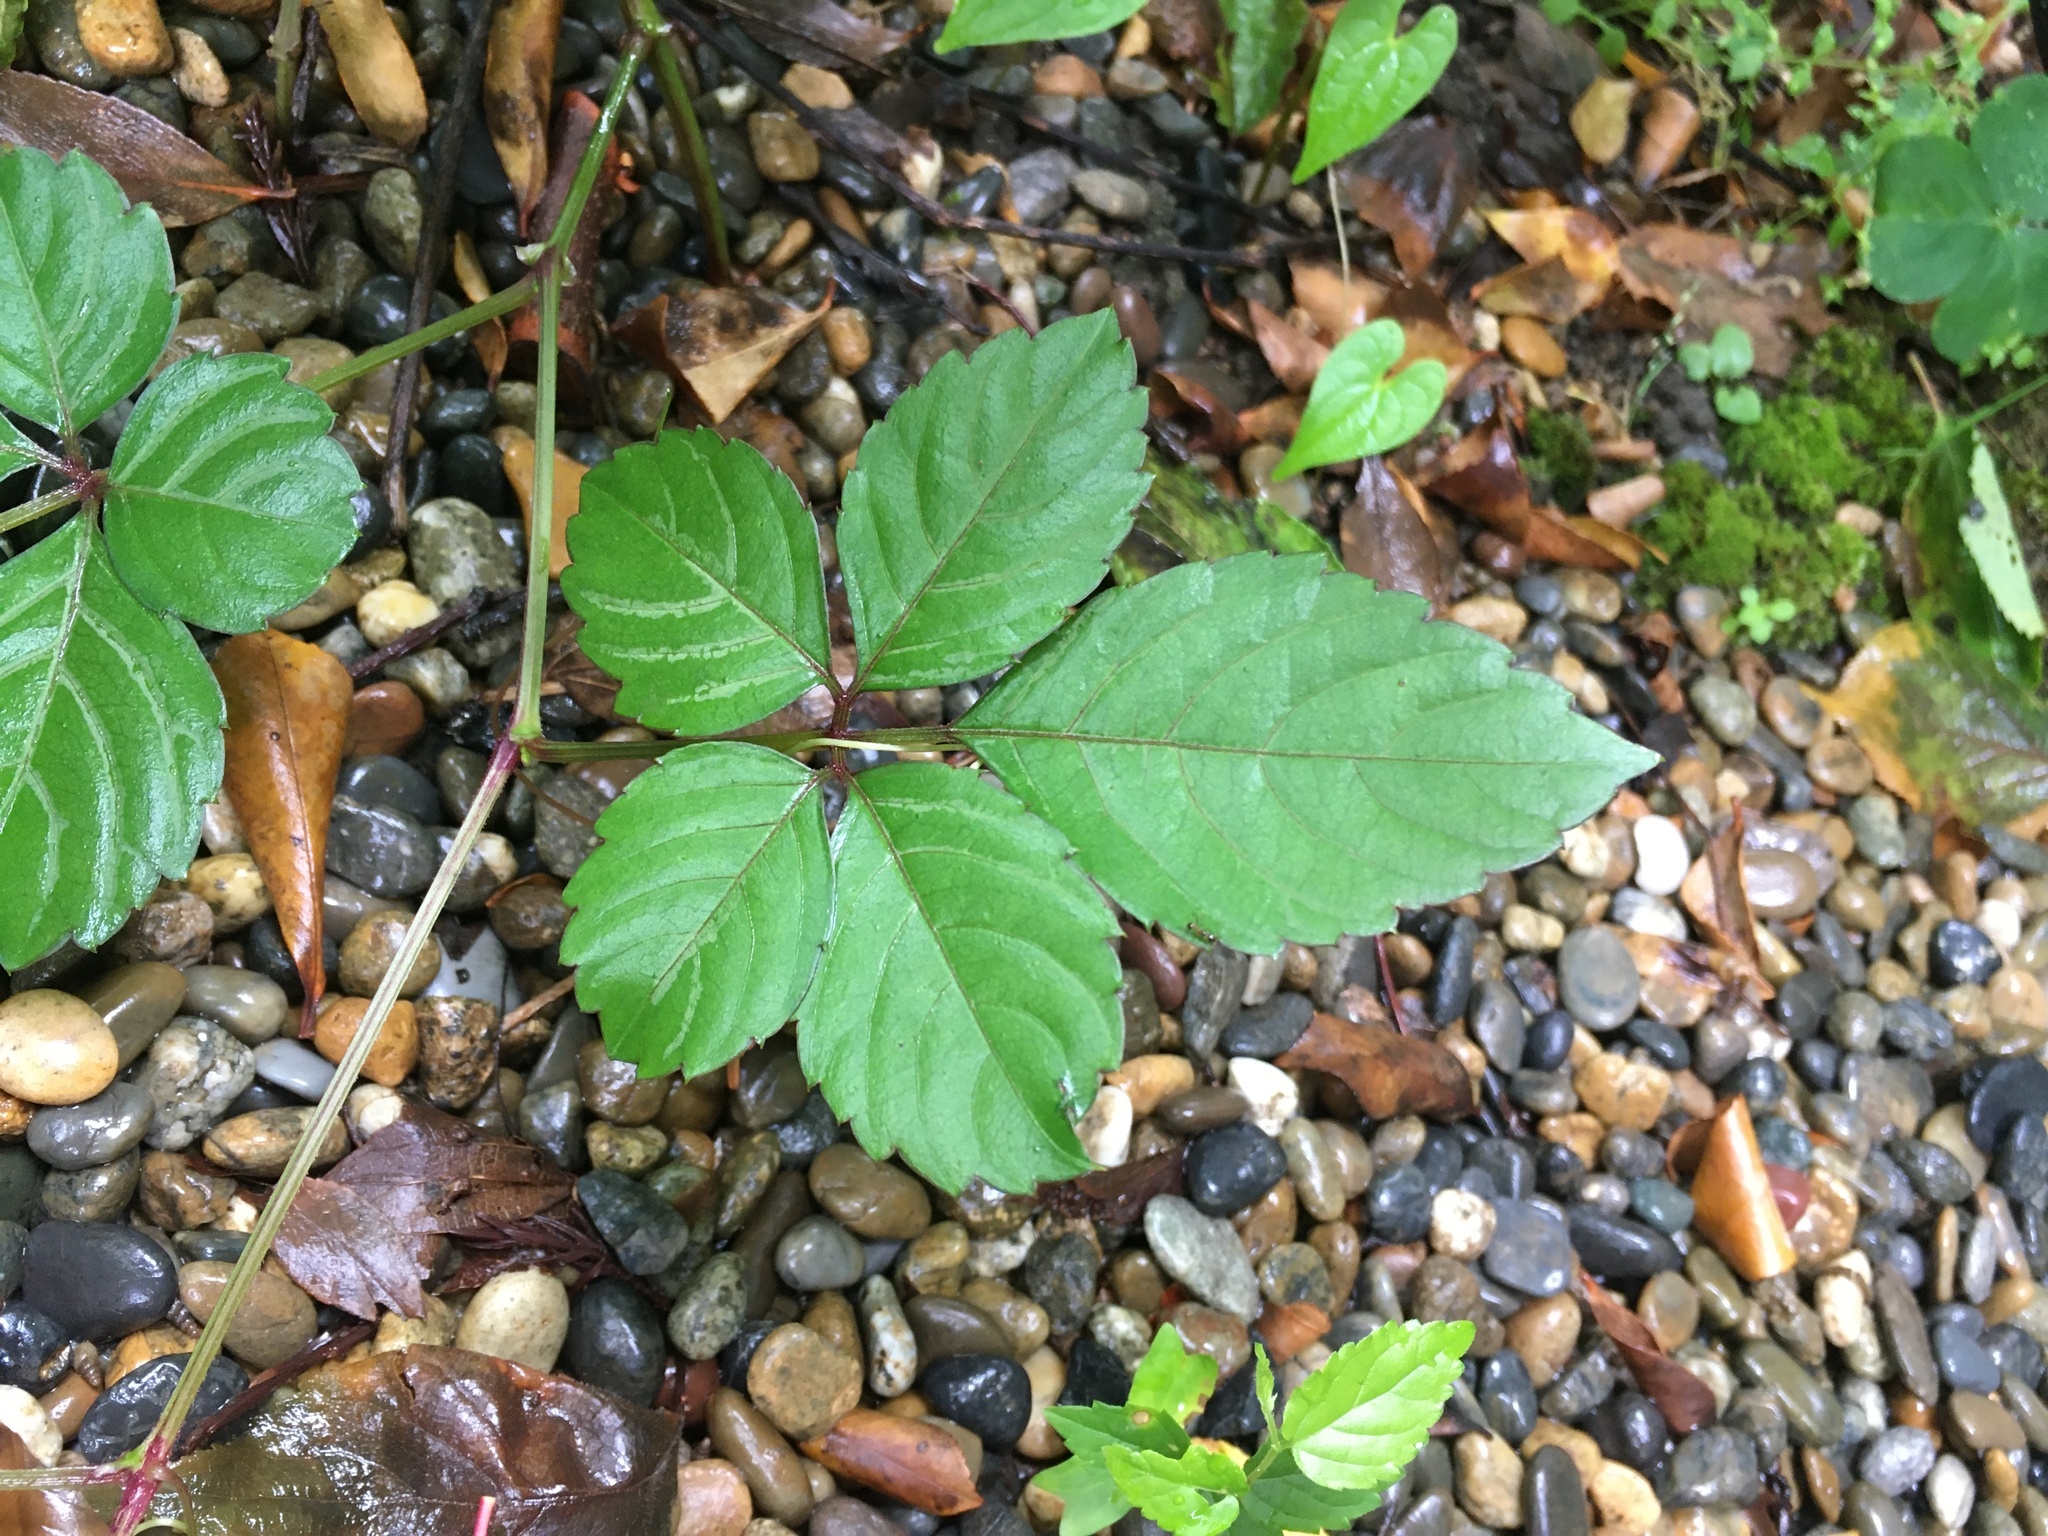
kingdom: Plantae
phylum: Tracheophyta
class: Magnoliopsida
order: Vitales
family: Vitaceae
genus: Causonis
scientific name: Causonis japonica
